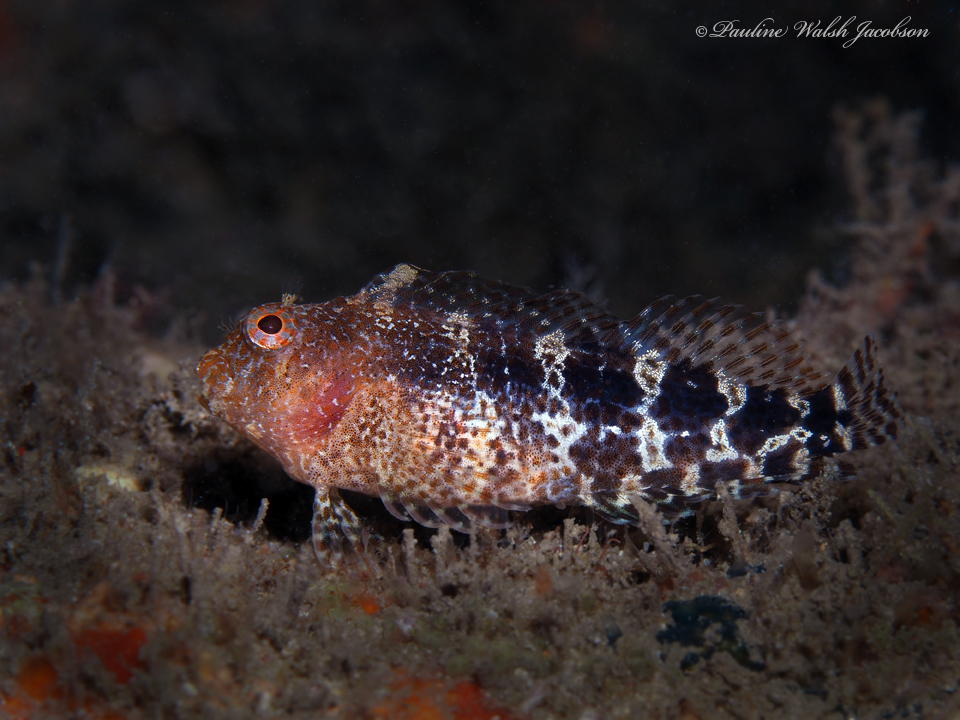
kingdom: Animalia
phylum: Chordata
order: Perciformes
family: Blenniidae
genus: Hypleurochilus
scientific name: Hypleurochilus bermudensis
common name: Barred blenny
